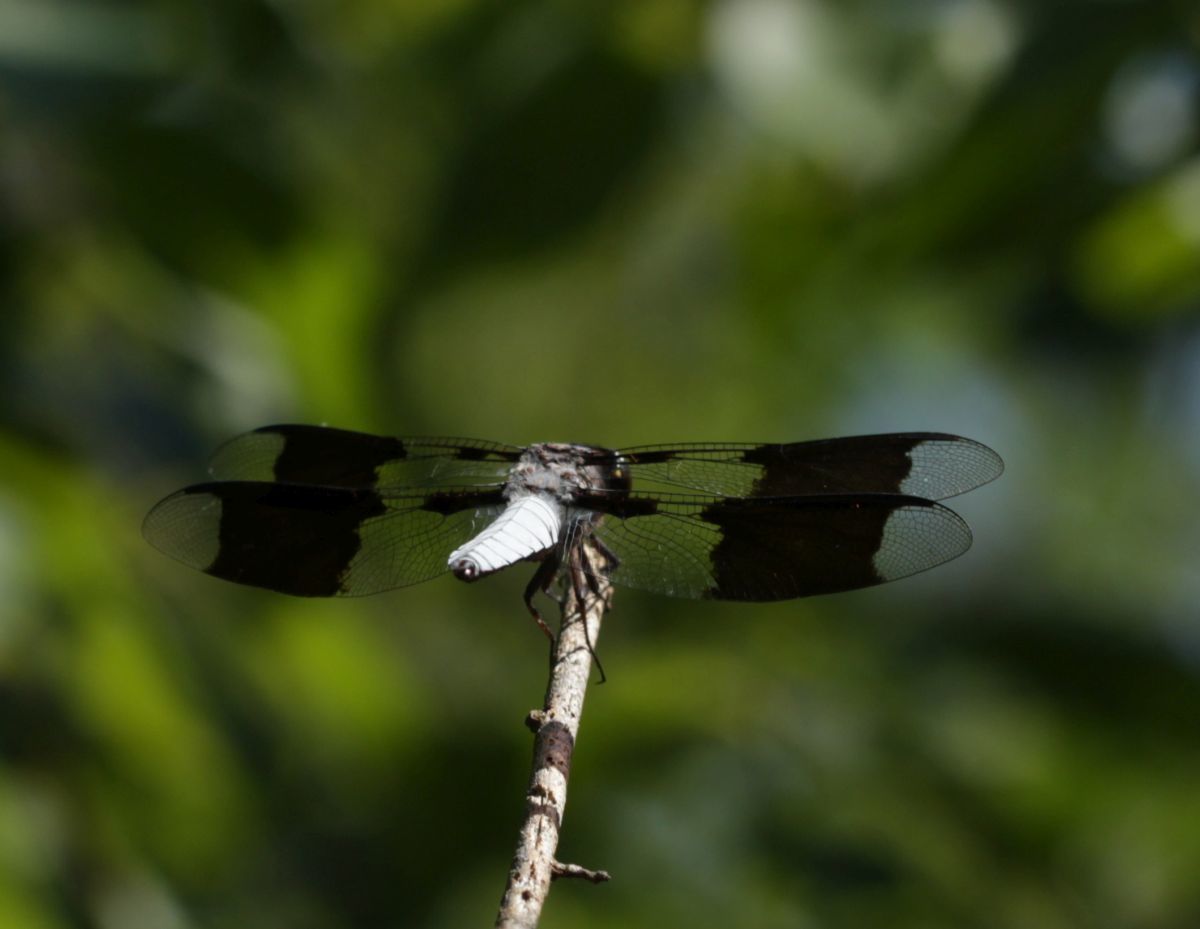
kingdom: Animalia
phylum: Arthropoda
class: Insecta
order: Odonata
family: Libellulidae
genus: Plathemis
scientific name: Plathemis lydia
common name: Common whitetail
